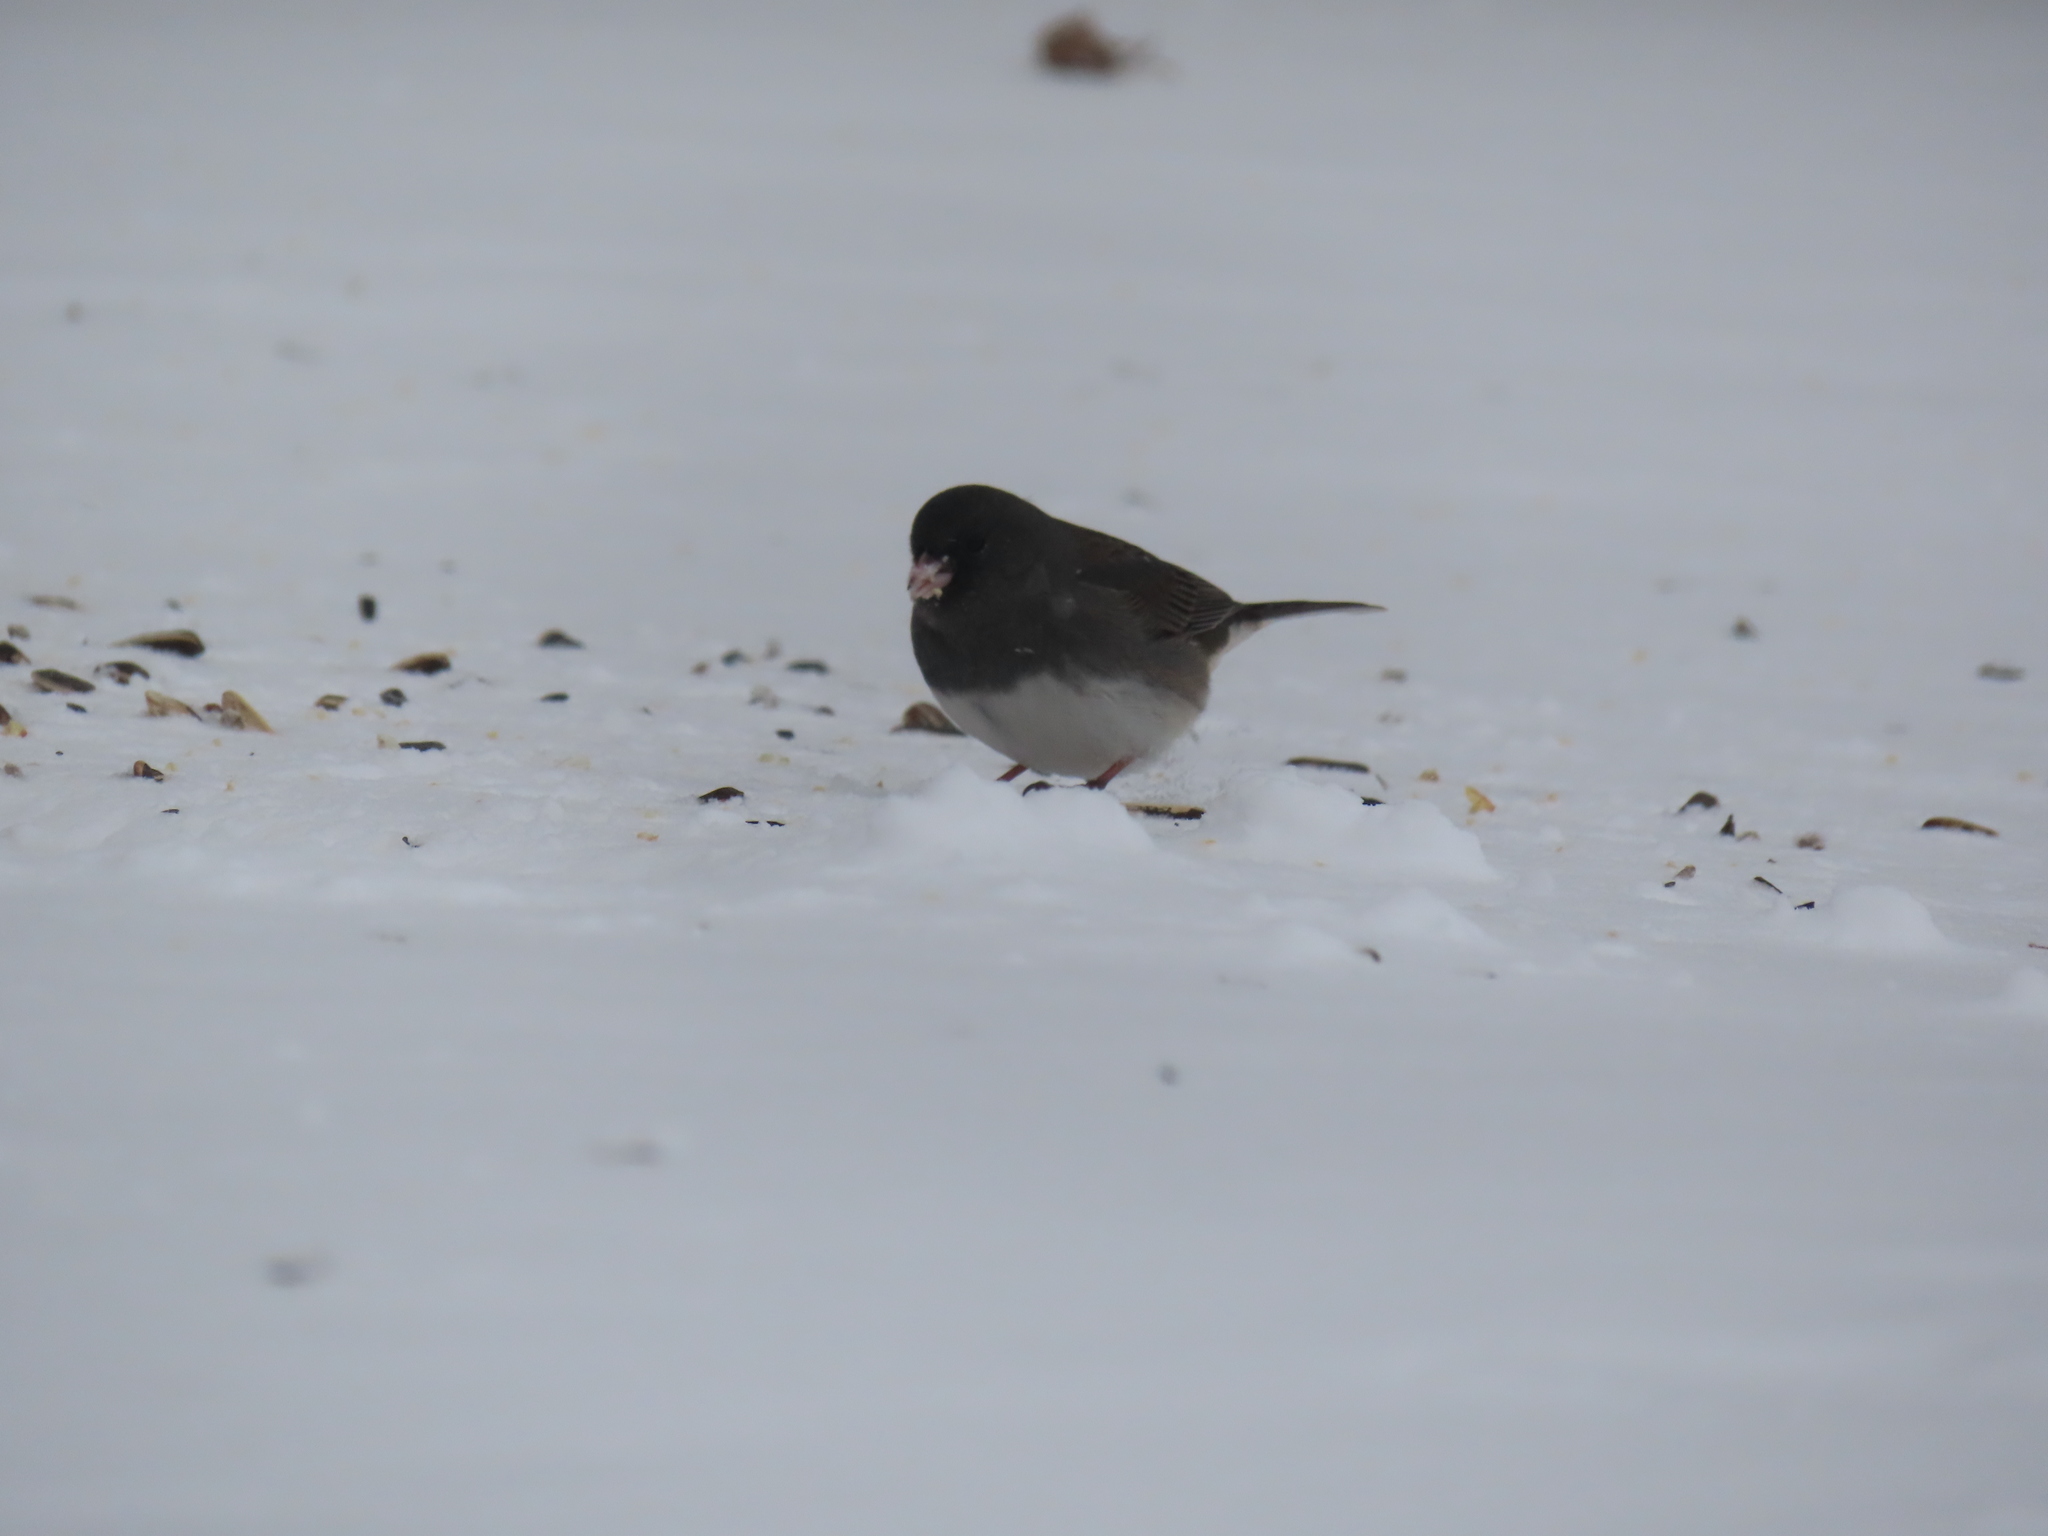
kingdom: Animalia
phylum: Chordata
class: Aves
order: Passeriformes
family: Passerellidae
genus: Junco
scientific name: Junco hyemalis
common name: Dark-eyed junco
